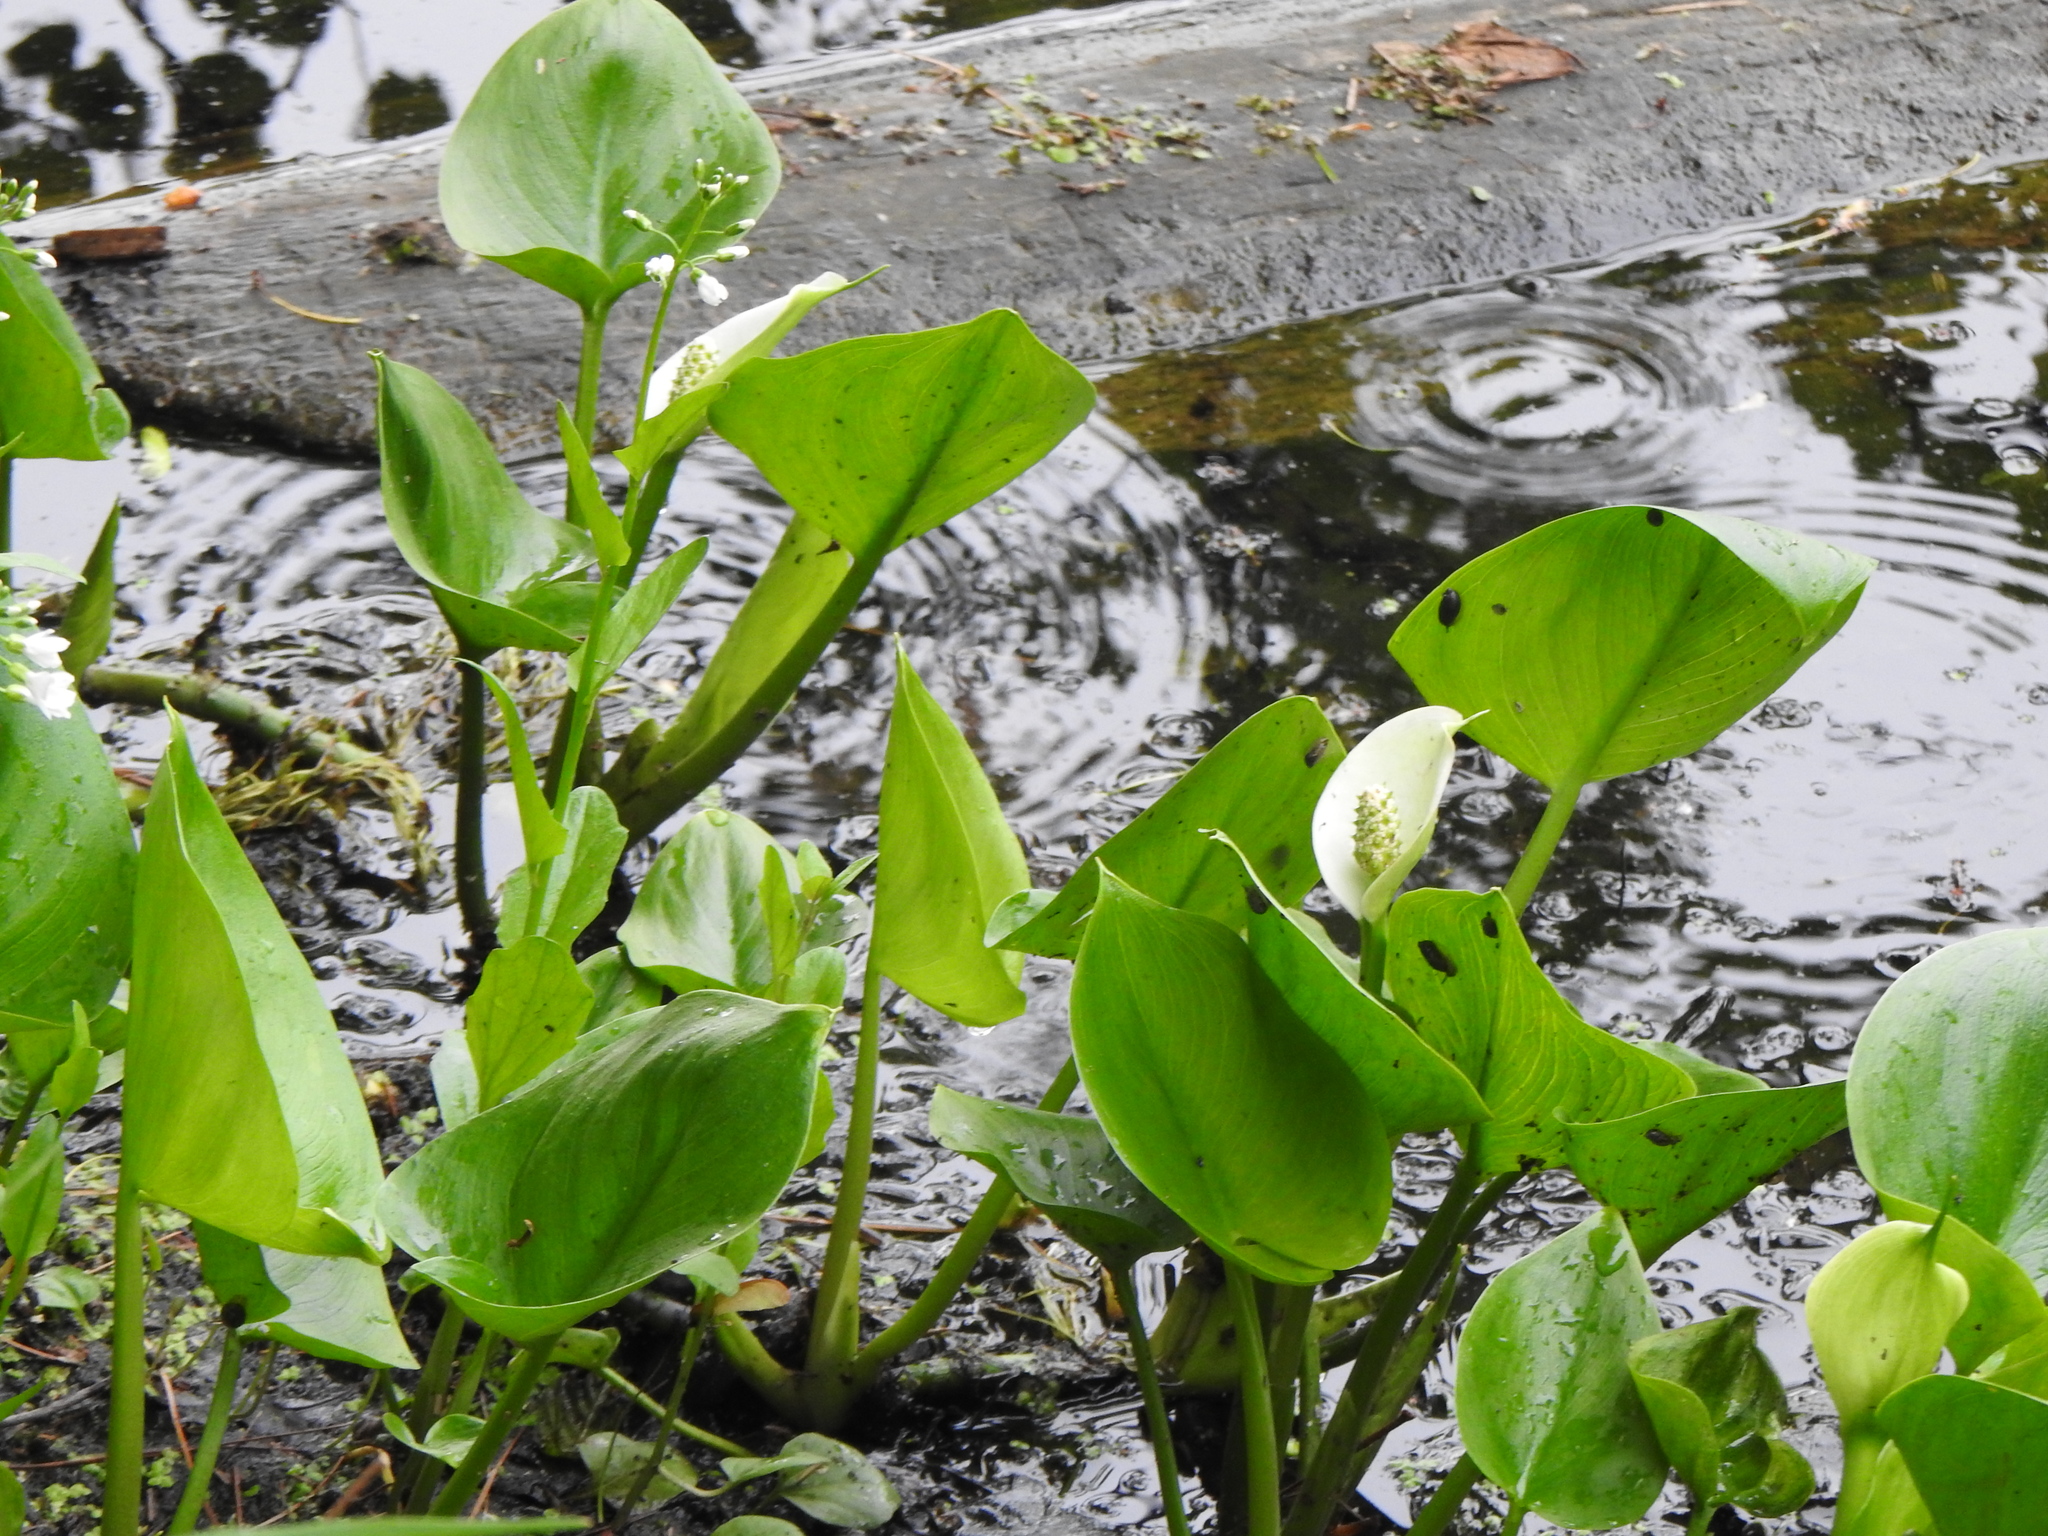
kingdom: Plantae
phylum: Tracheophyta
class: Liliopsida
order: Alismatales
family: Araceae
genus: Calla
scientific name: Calla palustris
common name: Bog arum
